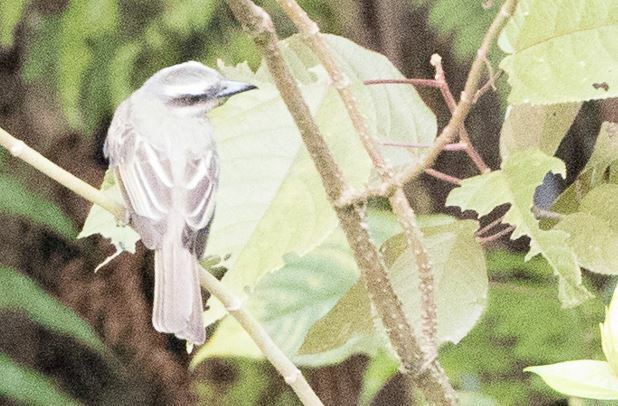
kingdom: Animalia
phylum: Chordata
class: Aves
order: Passeriformes
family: Tyrannidae
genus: Myiodynastes
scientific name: Myiodynastes chrysocephalus
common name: Golden-crowned flycatcher
